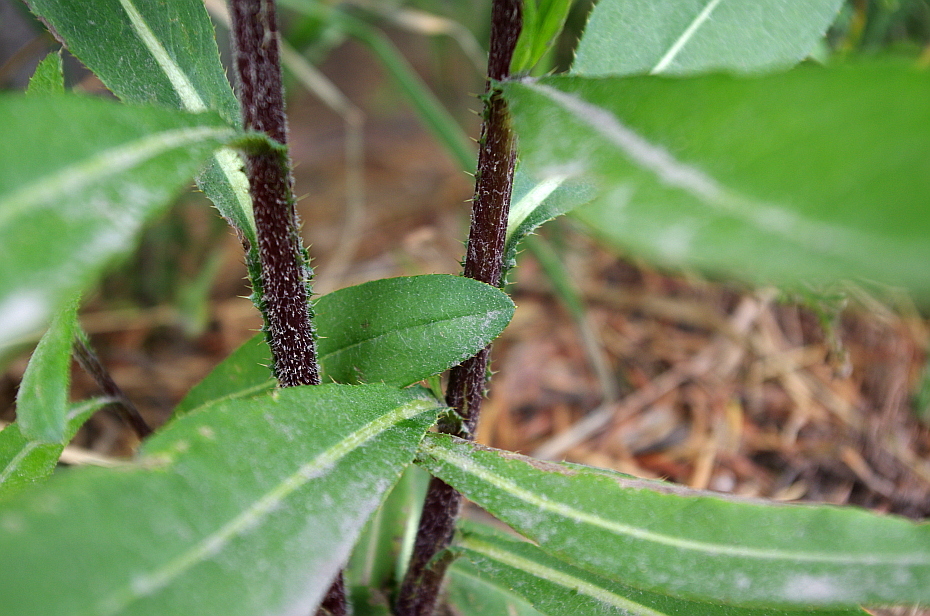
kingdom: Plantae
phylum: Tracheophyta
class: Magnoliopsida
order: Asterales
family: Asteraceae
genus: Cirsium
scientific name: Cirsium arvense
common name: Creeping thistle
